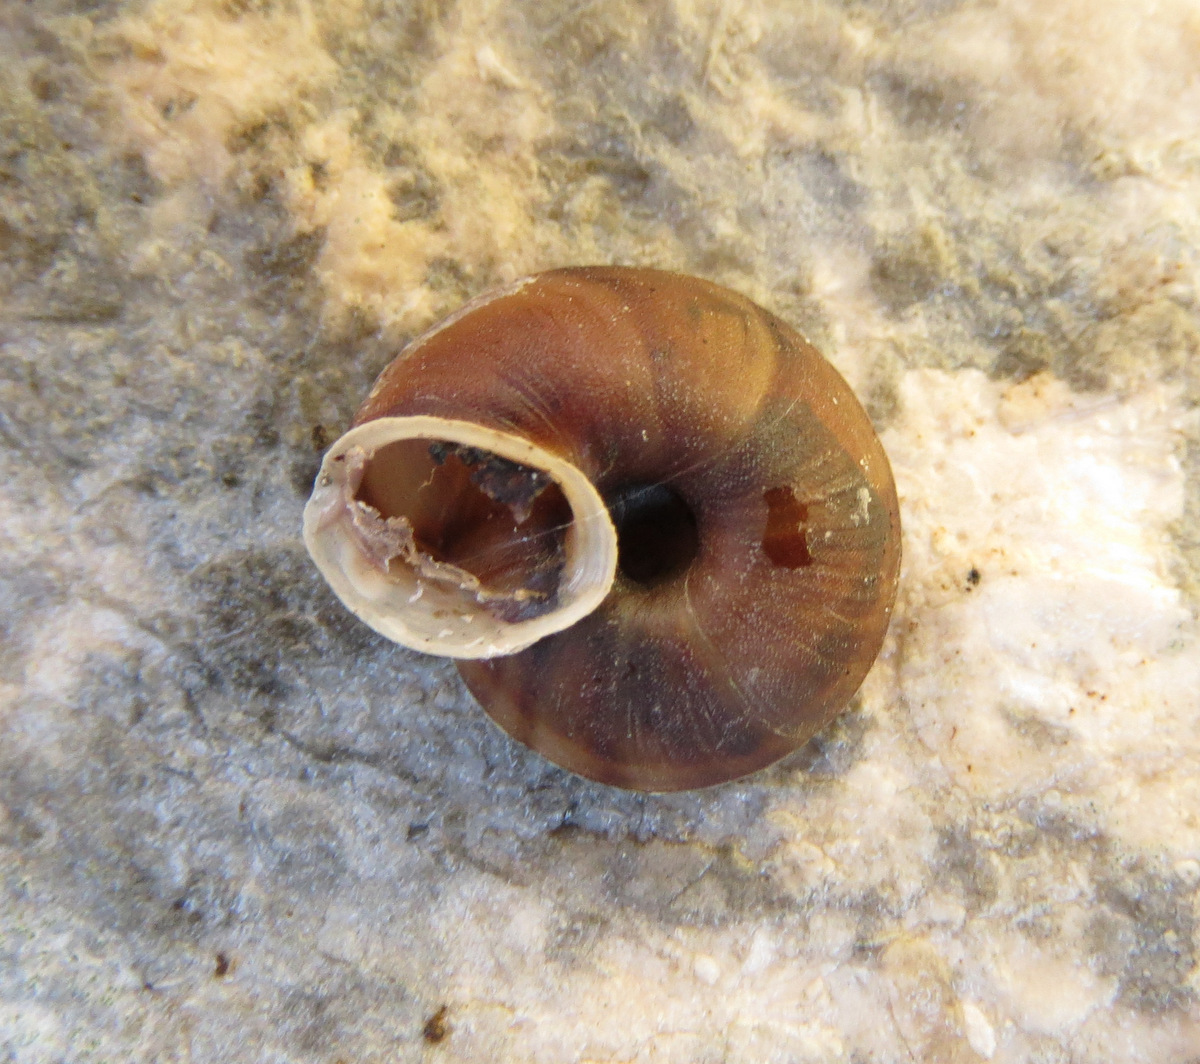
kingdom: Animalia
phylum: Mollusca
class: Gastropoda
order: Stylommatophora
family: Helicidae
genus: Helicigona
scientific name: Helicigona lapicida
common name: Lapidary snail
